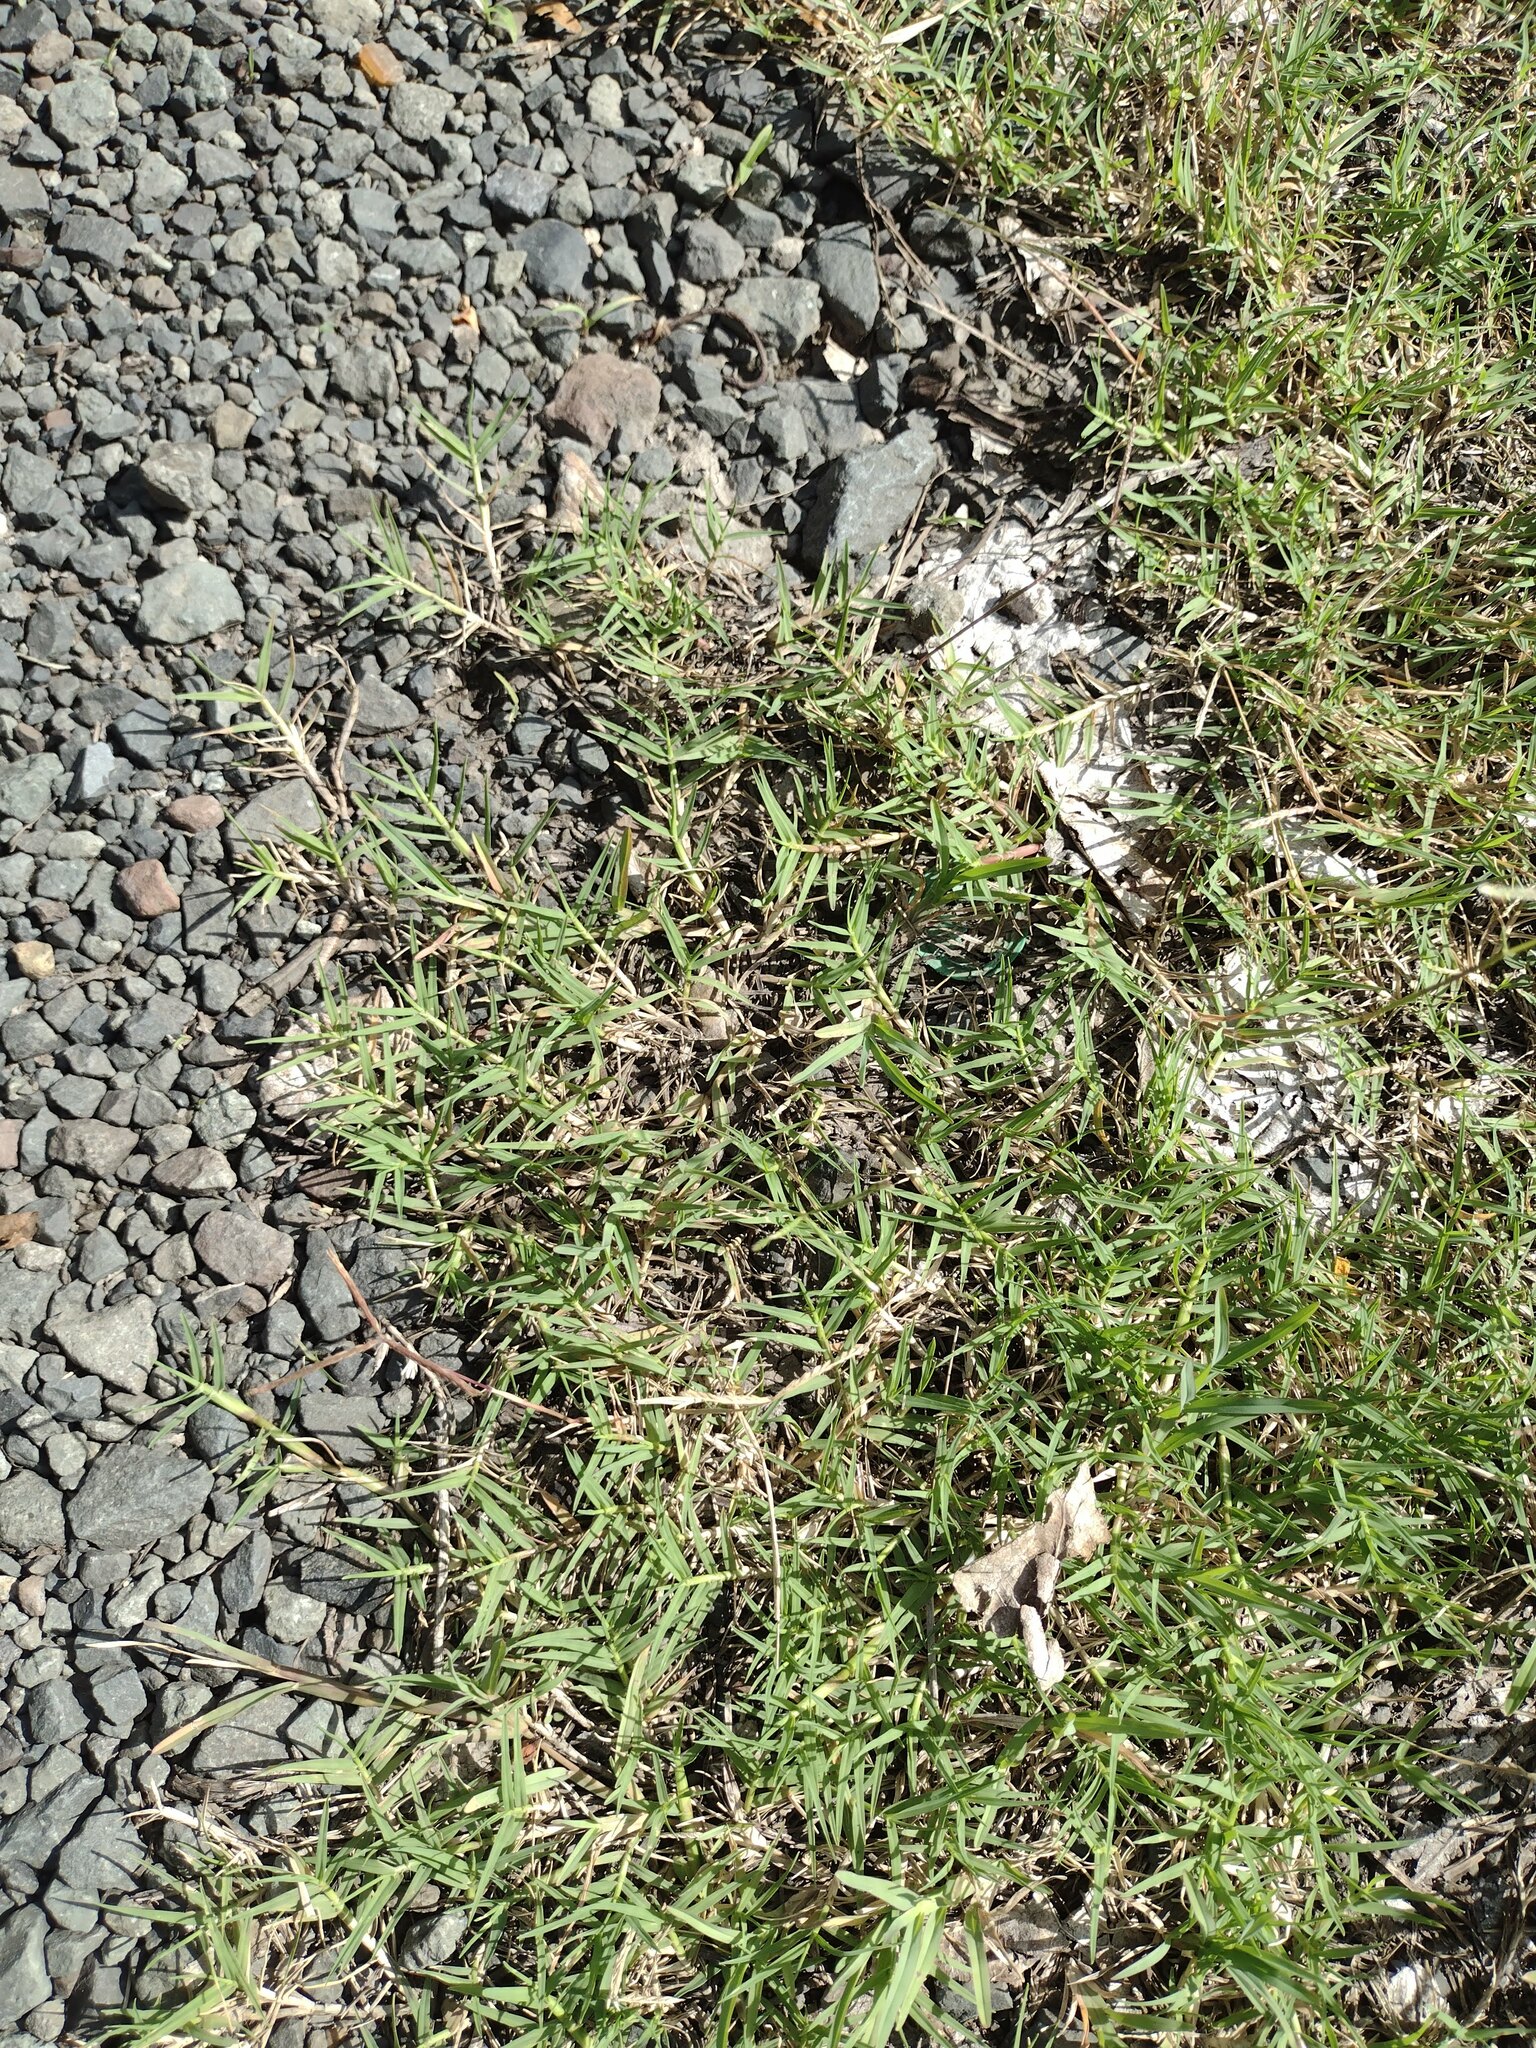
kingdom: Plantae
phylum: Tracheophyta
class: Liliopsida
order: Poales
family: Poaceae
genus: Cynodon
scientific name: Cynodon dactylon
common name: Bermuda grass
